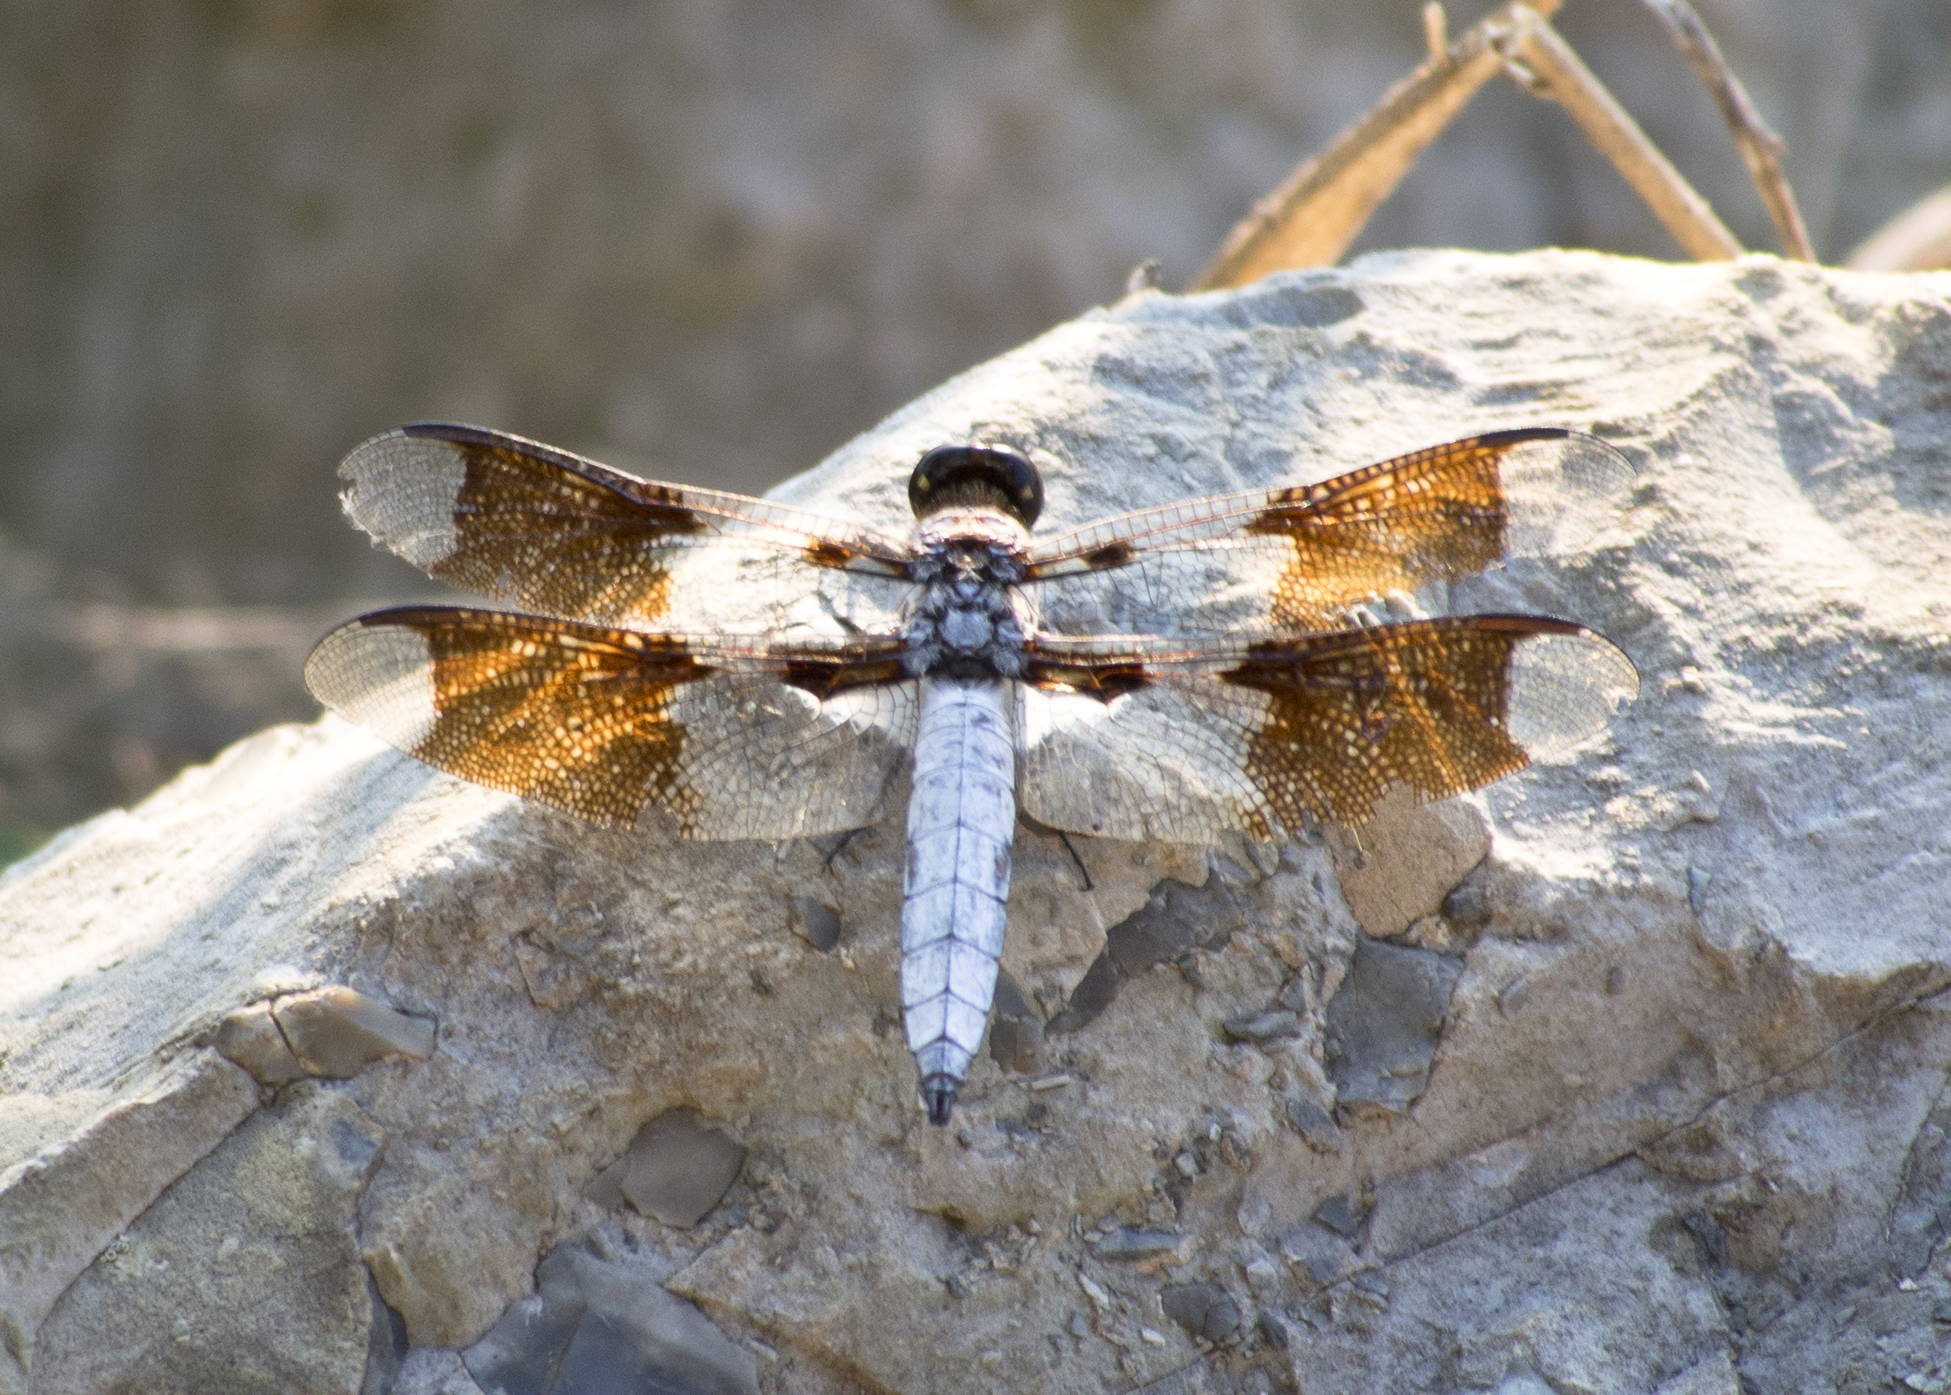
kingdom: Animalia
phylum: Arthropoda
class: Insecta
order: Odonata
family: Libellulidae
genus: Plathemis
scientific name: Plathemis lydia
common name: Common whitetail
